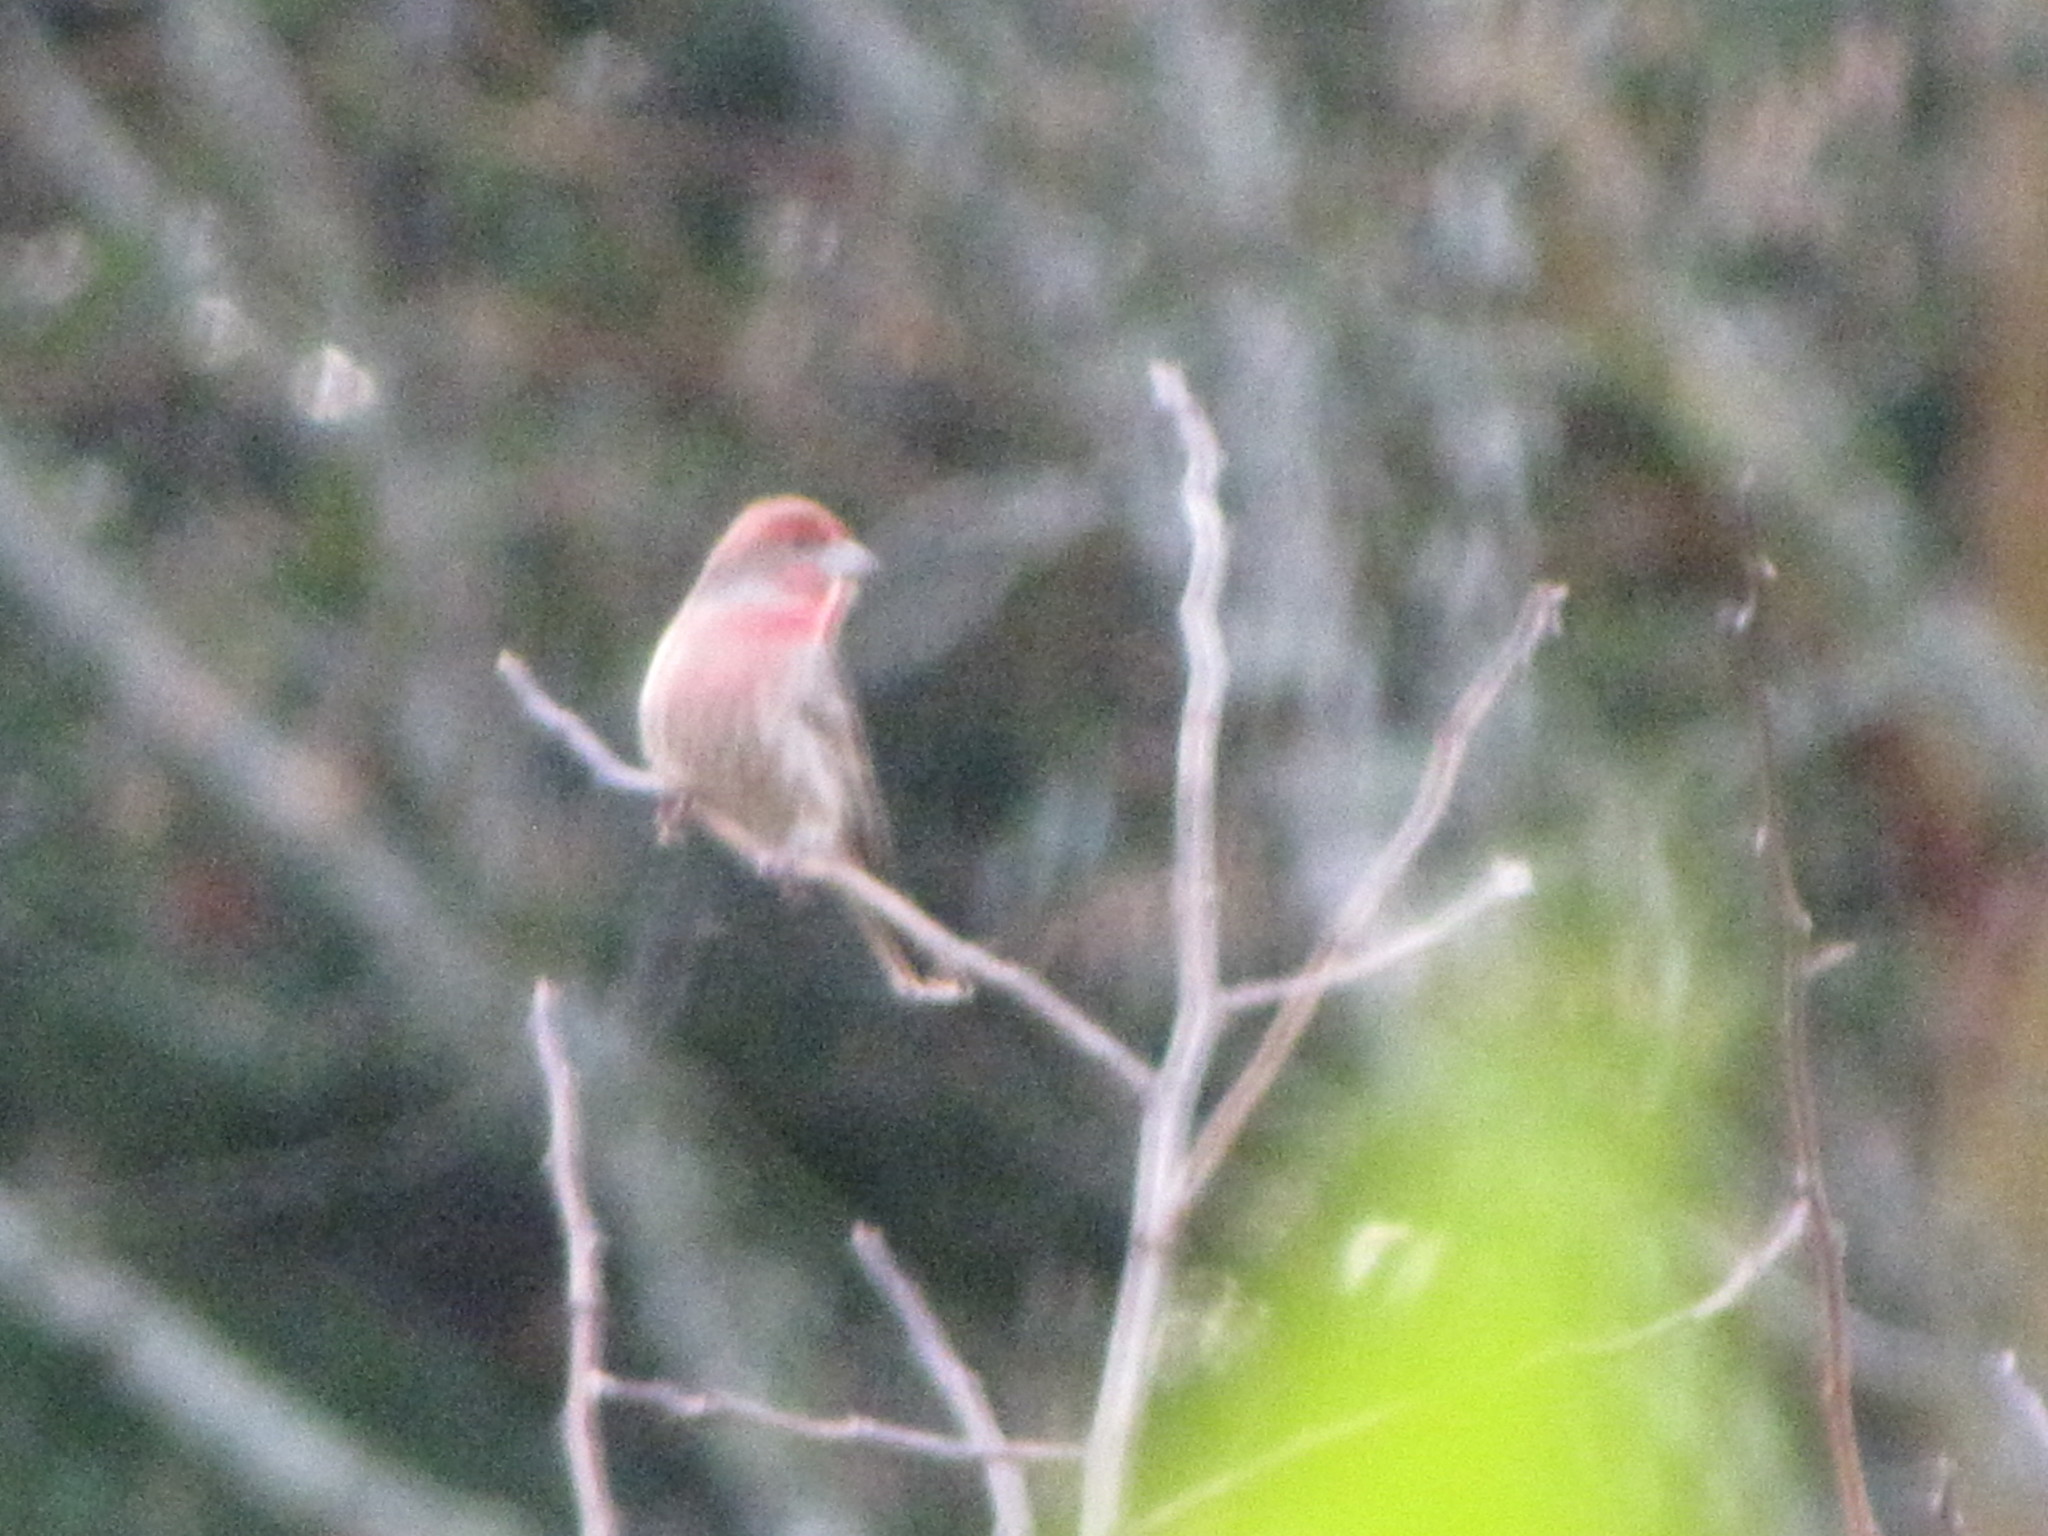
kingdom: Animalia
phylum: Chordata
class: Aves
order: Passeriformes
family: Fringillidae
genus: Haemorhous
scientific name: Haemorhous mexicanus
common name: House finch
